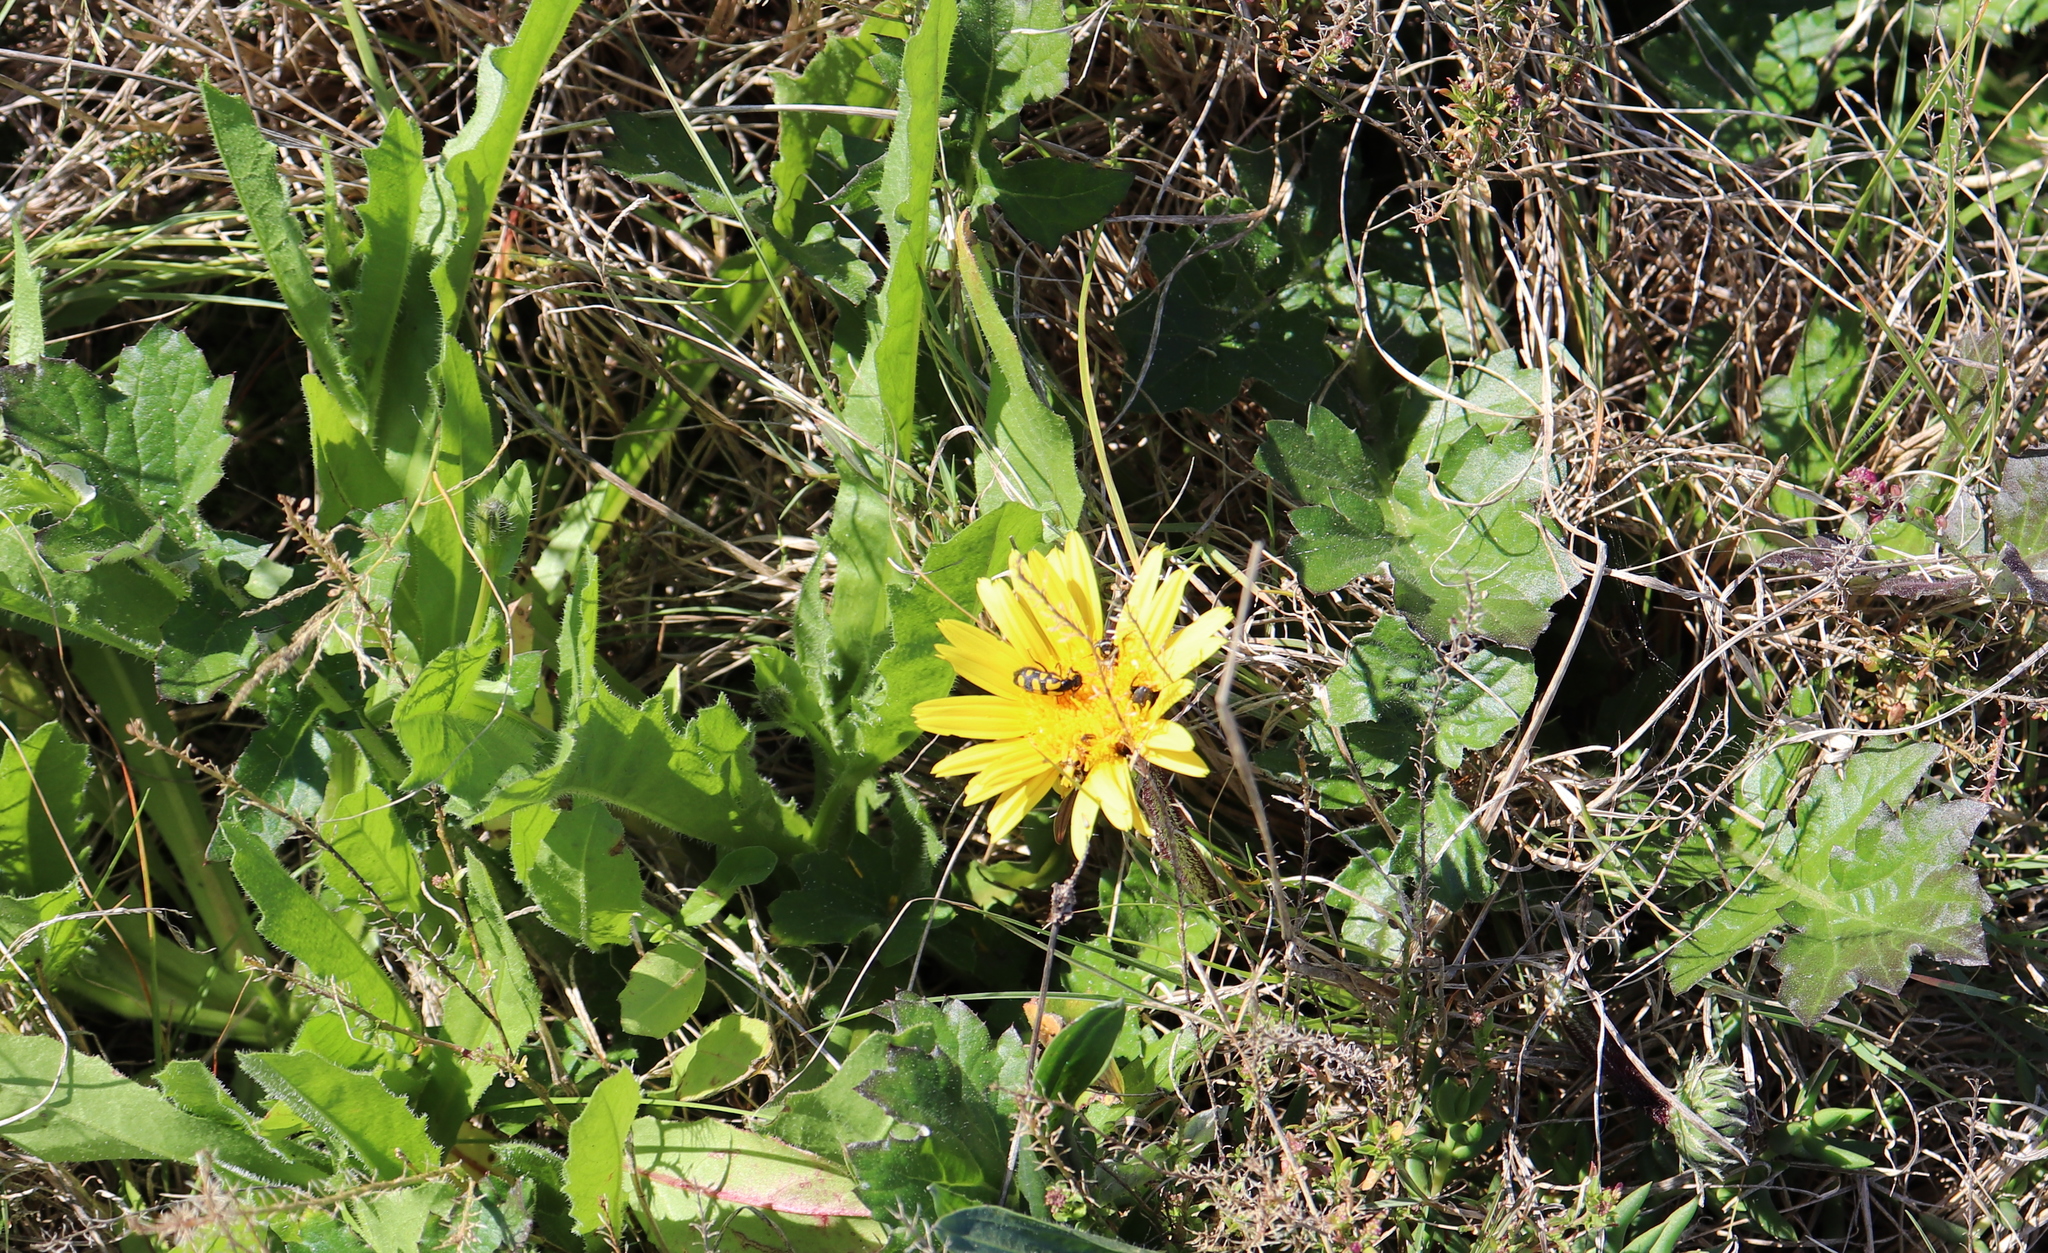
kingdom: Plantae
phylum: Tracheophyta
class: Magnoliopsida
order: Asterales
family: Asteraceae
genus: Arctotheca
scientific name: Arctotheca prostrata
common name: Capeweed
